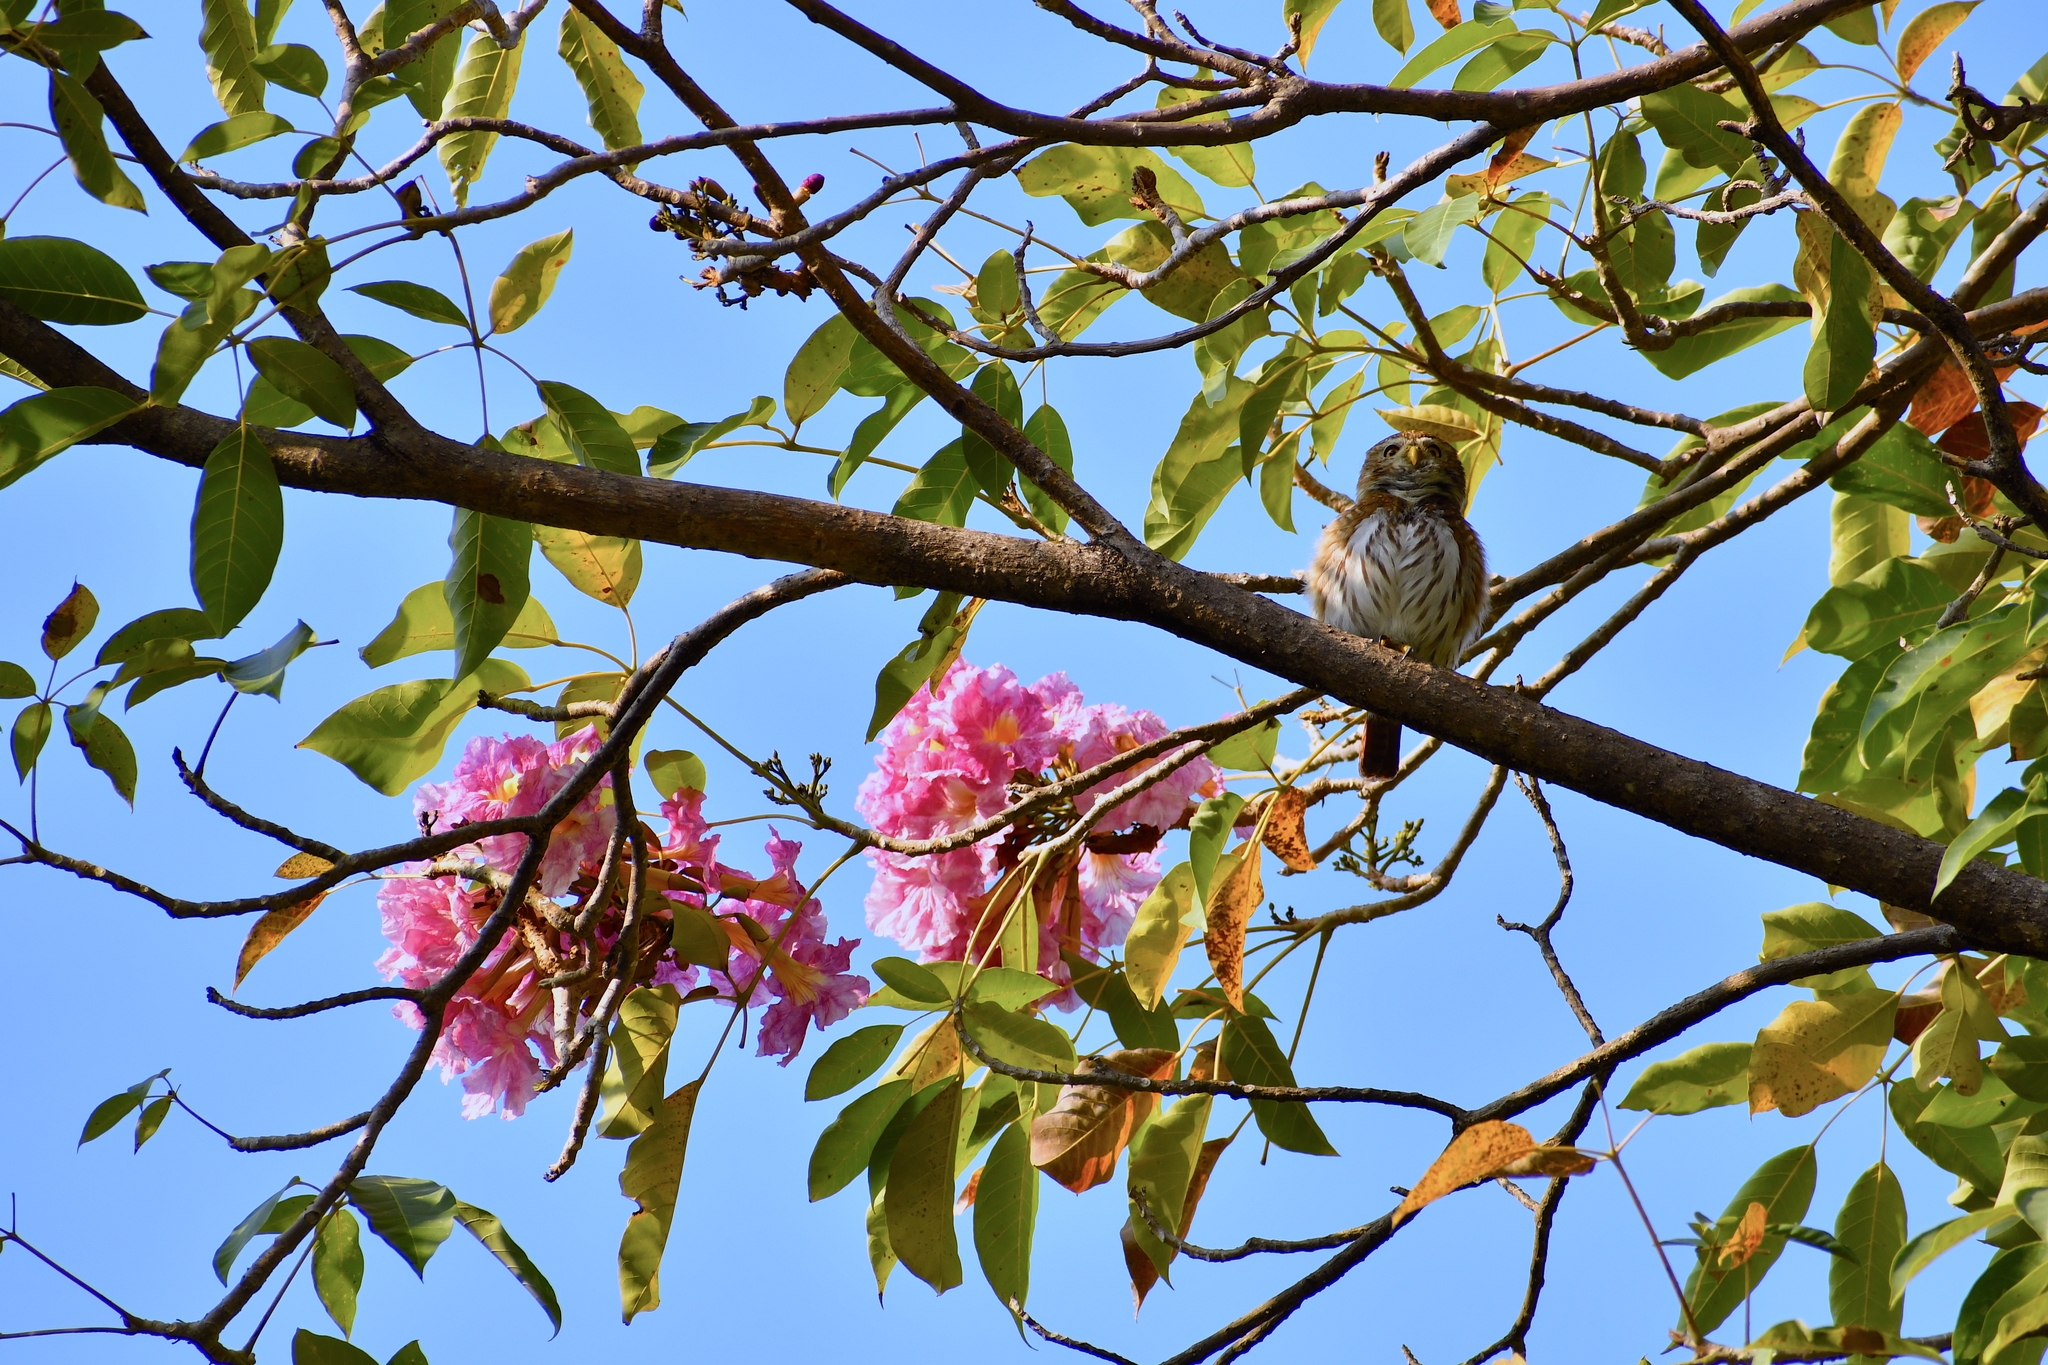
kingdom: Animalia
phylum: Chordata
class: Aves
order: Strigiformes
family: Strigidae
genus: Glaucidium
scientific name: Glaucidium brasilianum
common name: Ferruginous pygmy-owl
